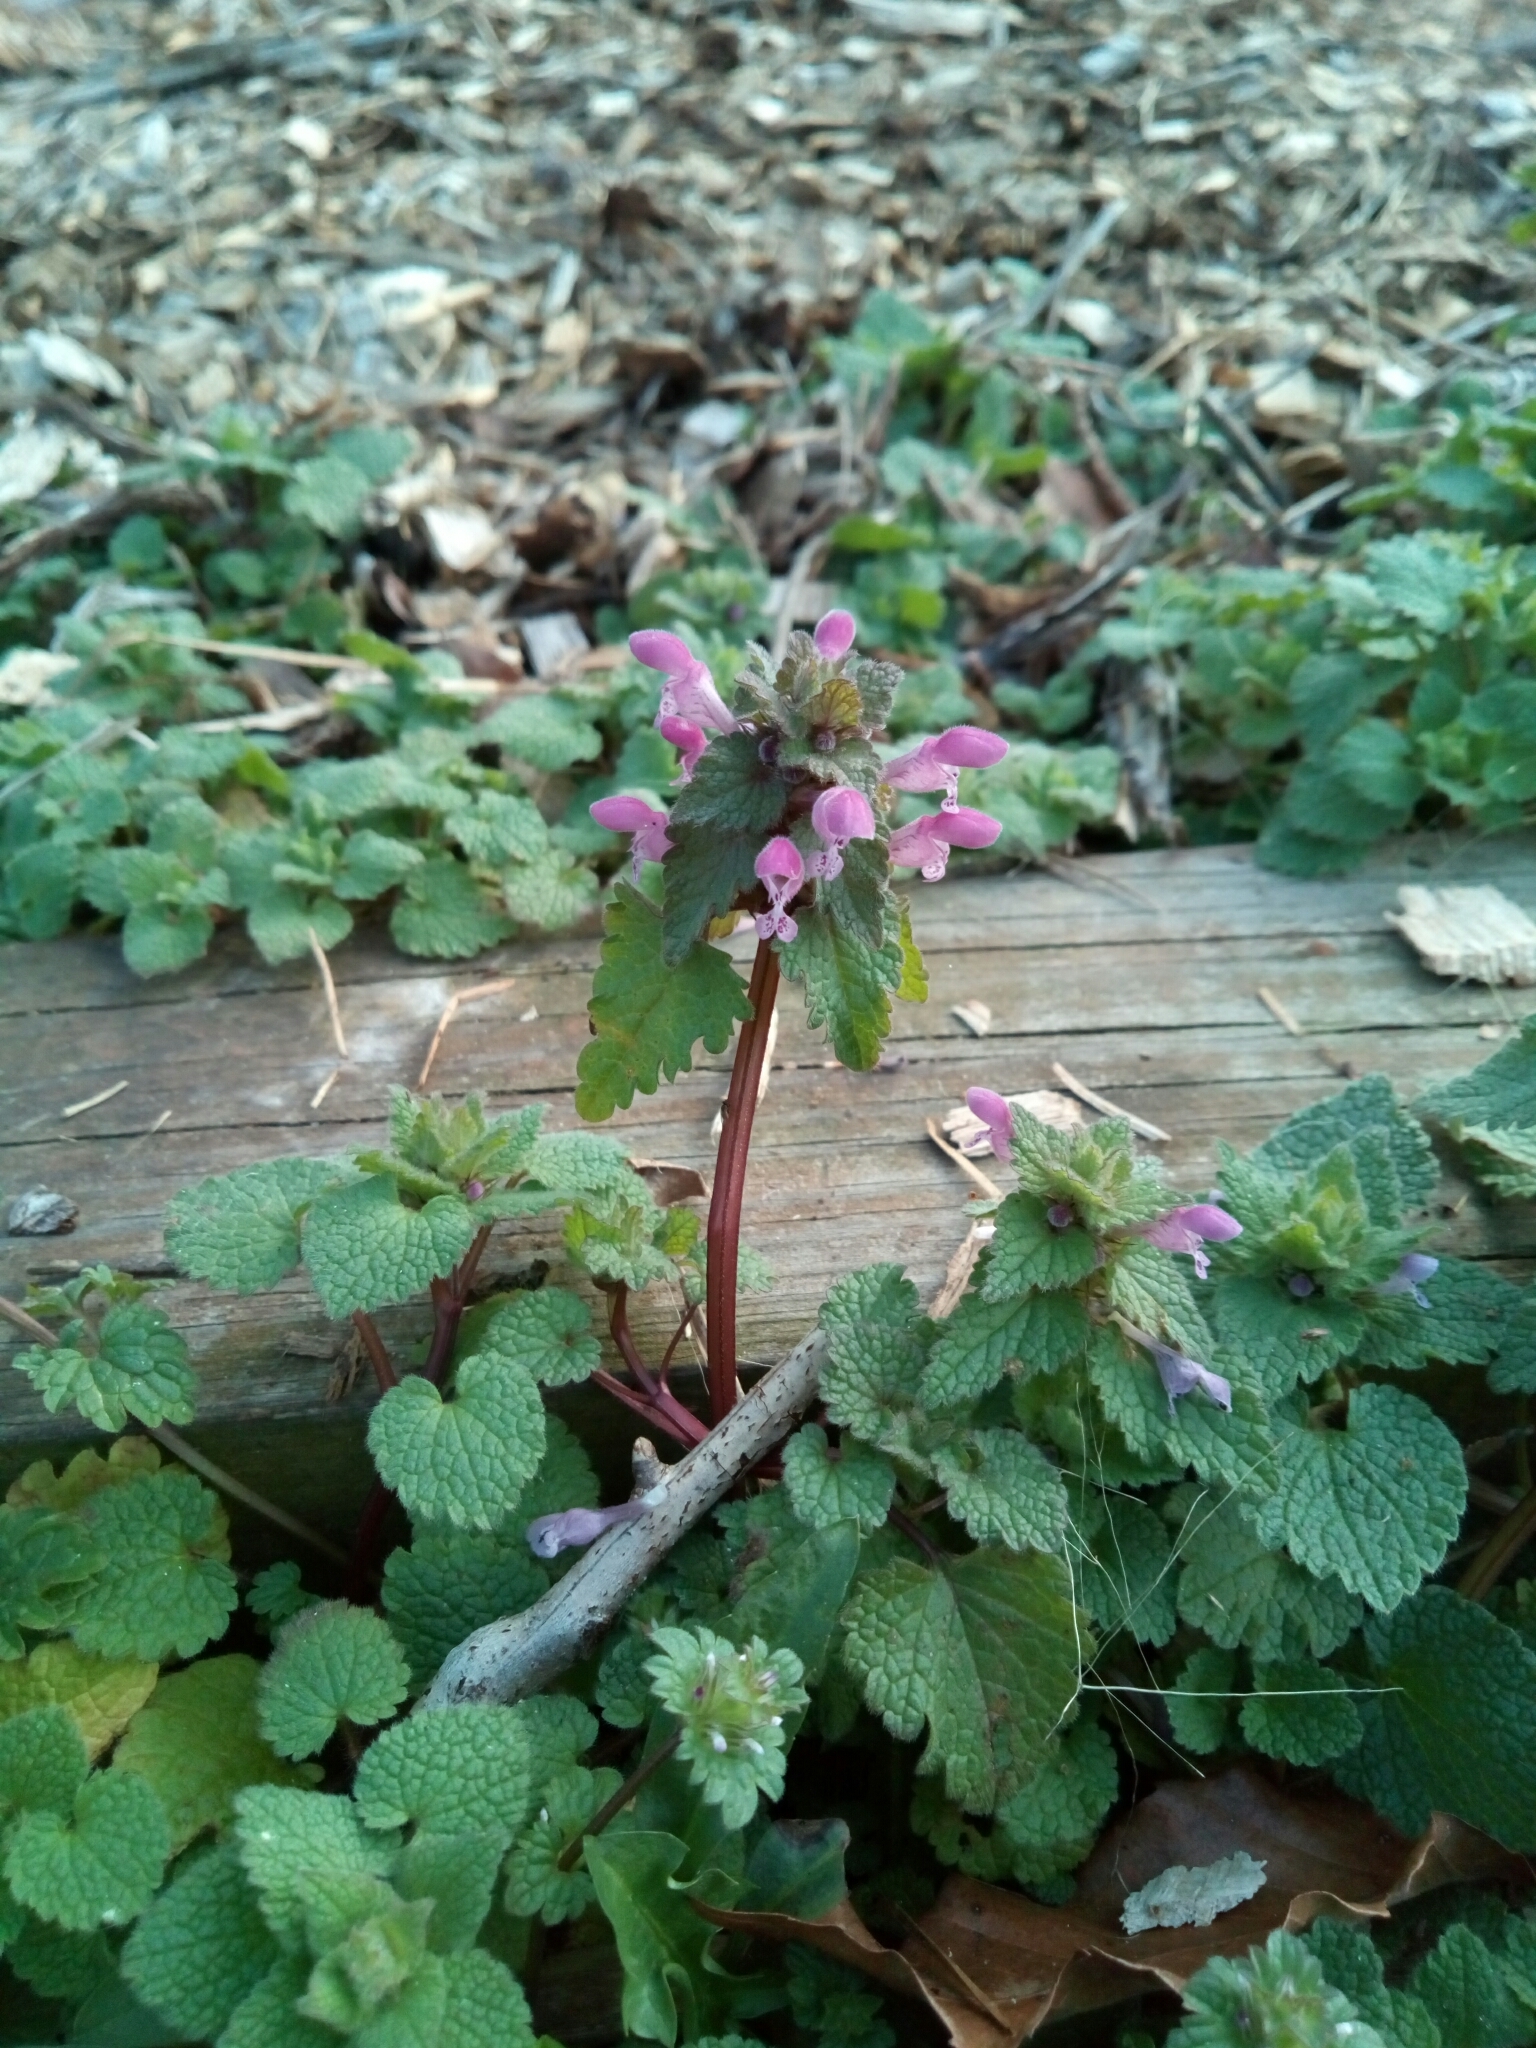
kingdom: Plantae
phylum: Tracheophyta
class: Magnoliopsida
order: Lamiales
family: Lamiaceae
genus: Lamium
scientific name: Lamium purpureum
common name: Red dead-nettle
